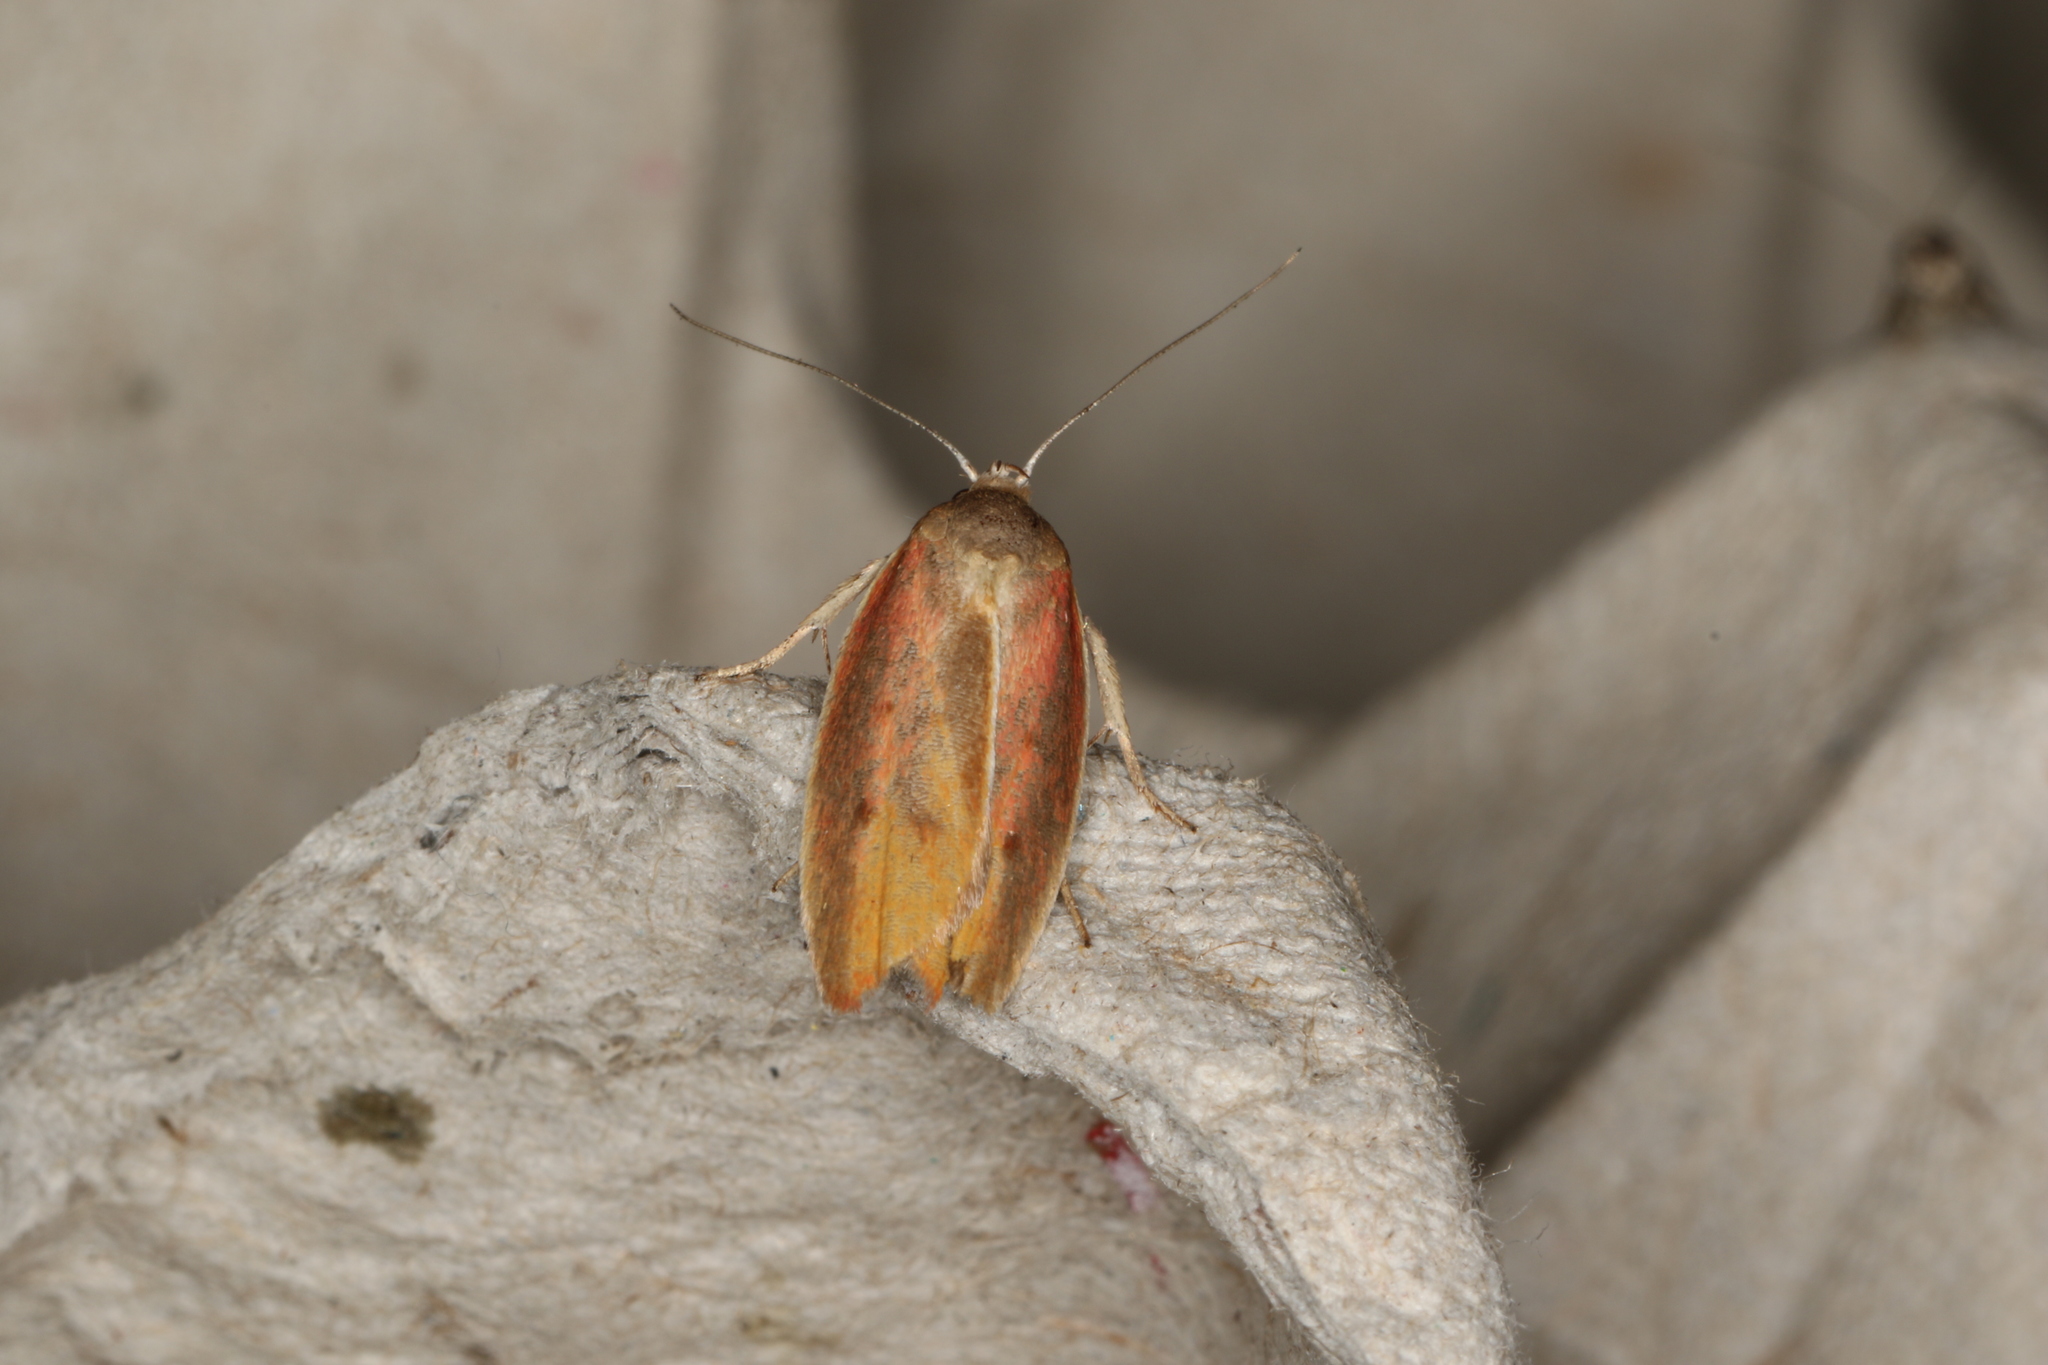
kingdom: Animalia
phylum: Arthropoda
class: Insecta
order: Lepidoptera
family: Oecophoridae
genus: Ptyoptila
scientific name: Ptyoptila matutinella
